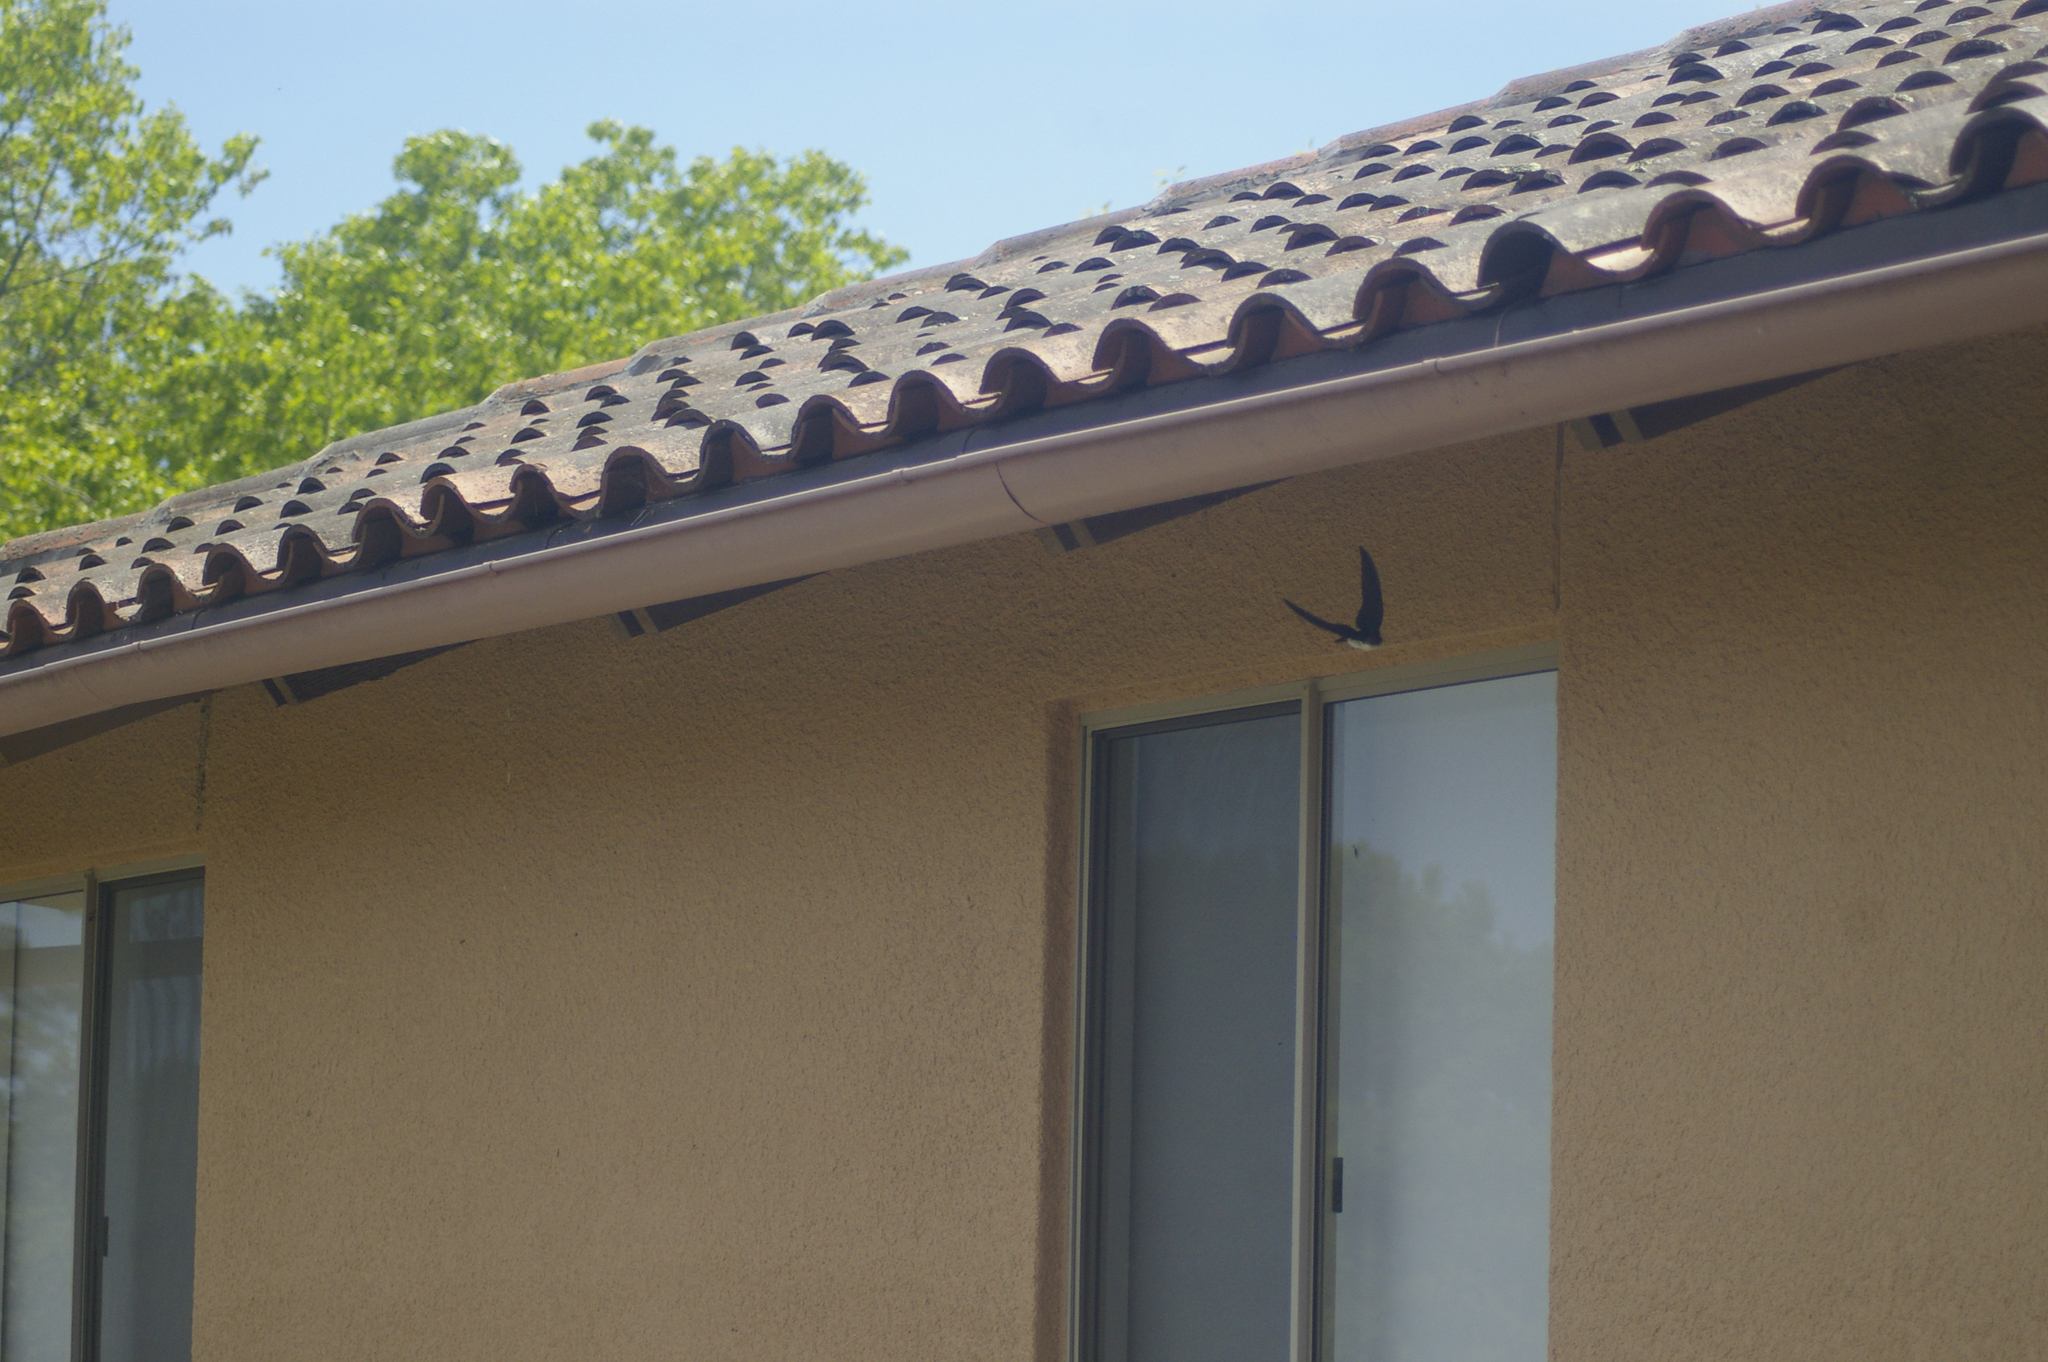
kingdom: Animalia
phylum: Chordata
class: Aves
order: Passeriformes
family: Hirundinidae
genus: Tachycineta
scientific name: Tachycineta thalassina
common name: Violet-green swallow
